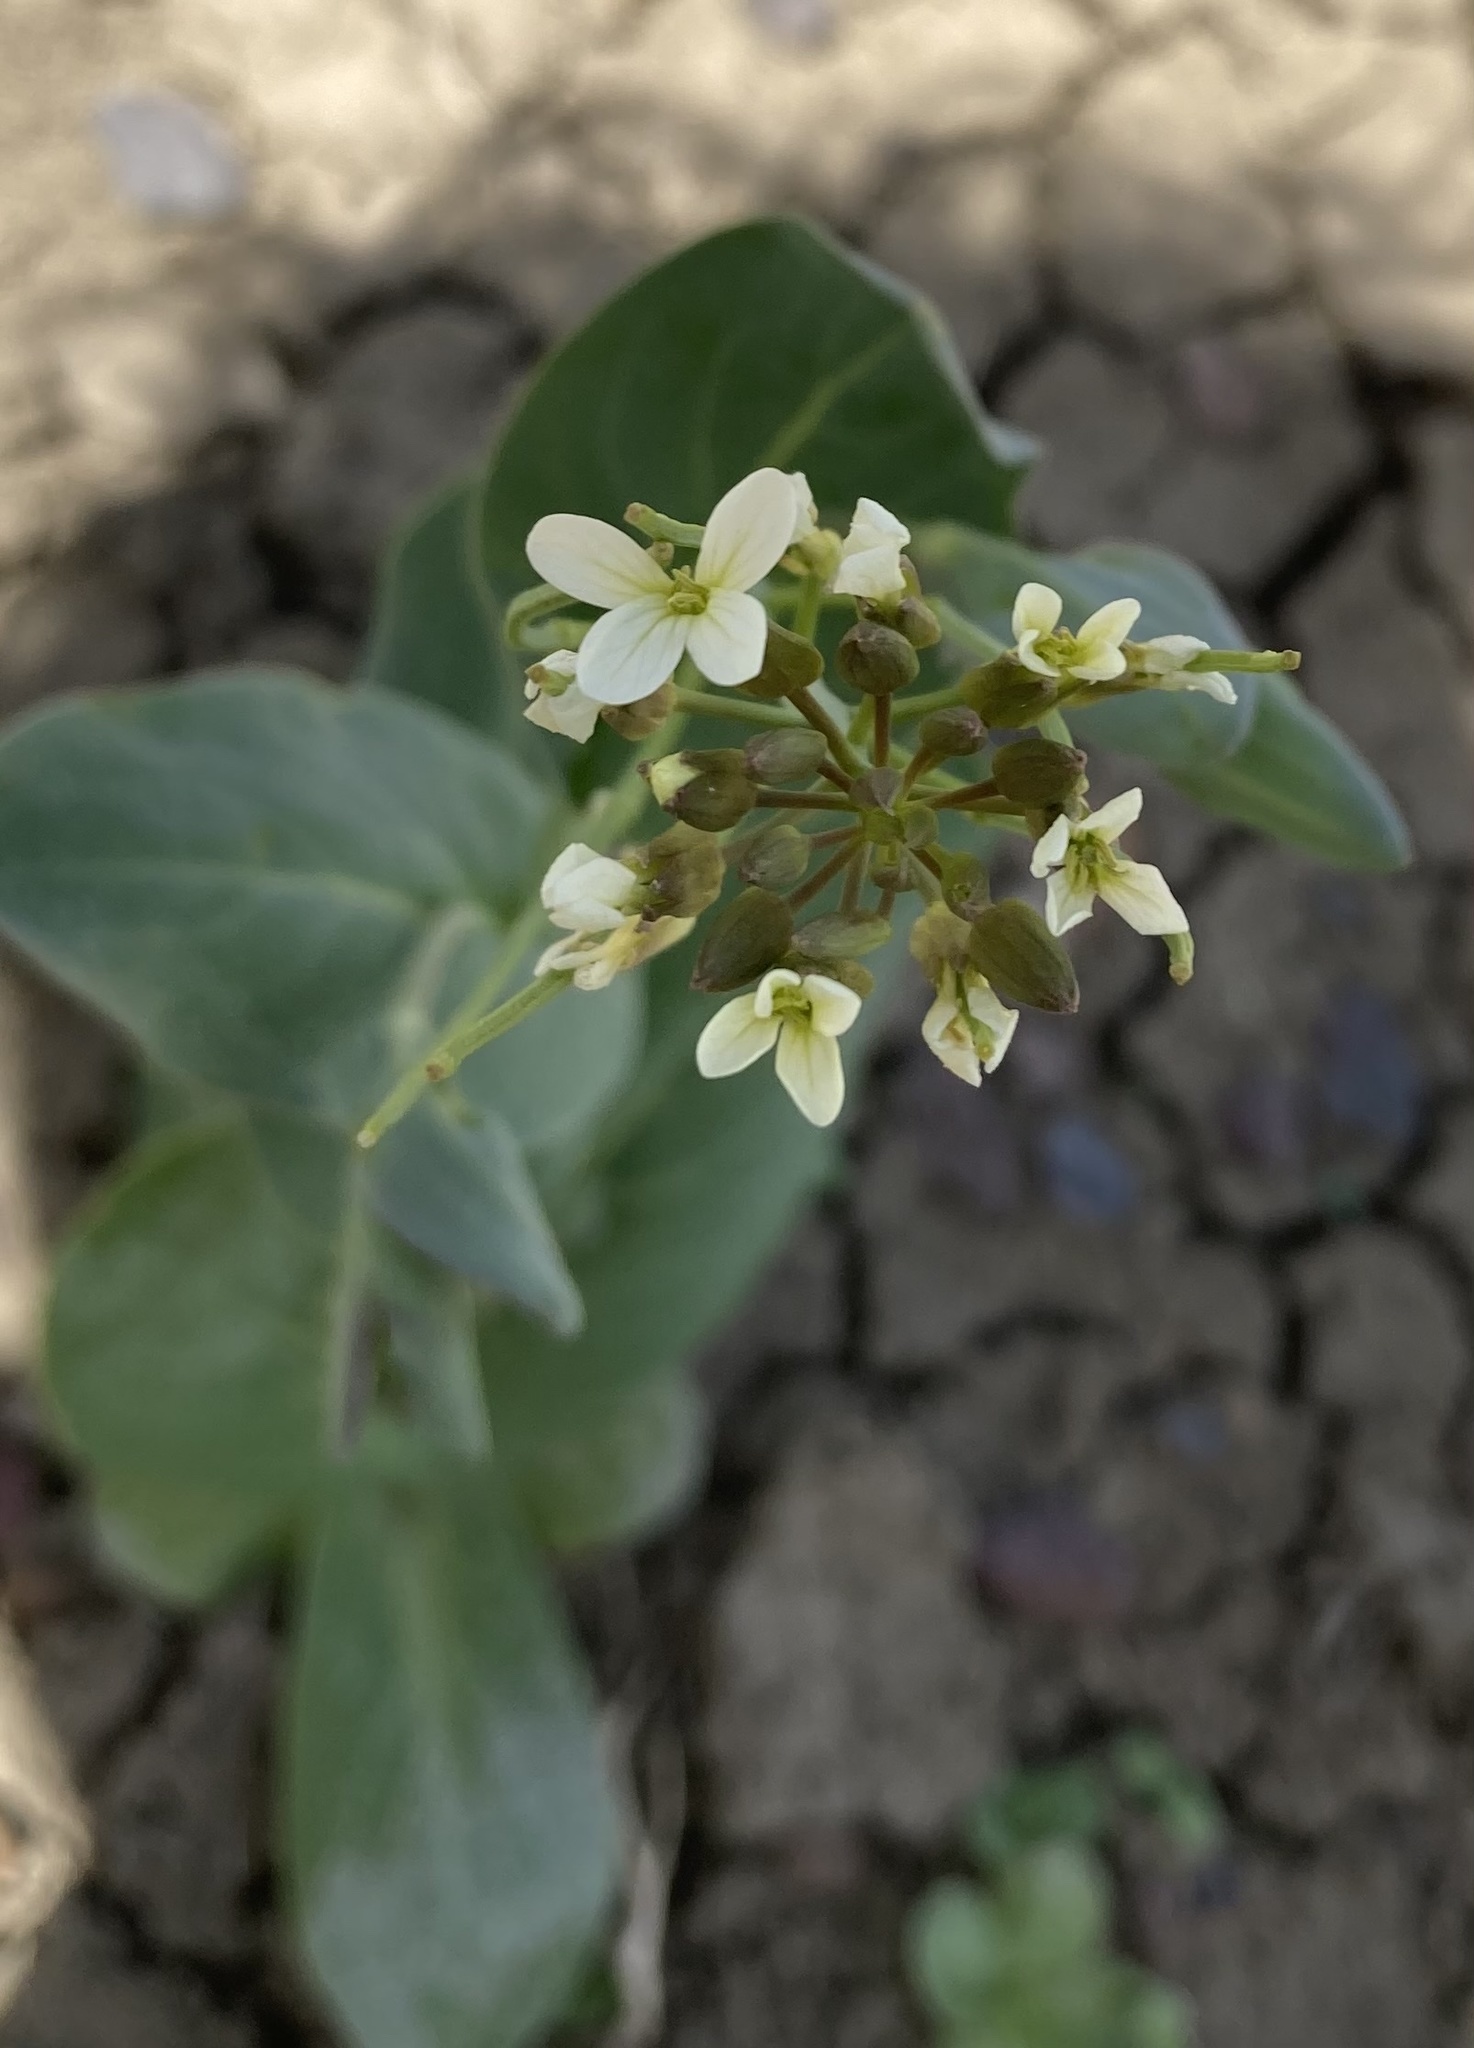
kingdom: Plantae
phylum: Tracheophyta
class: Magnoliopsida
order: Brassicales
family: Brassicaceae
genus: Conringia
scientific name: Conringia orientalis
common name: Hare's ear mustard
